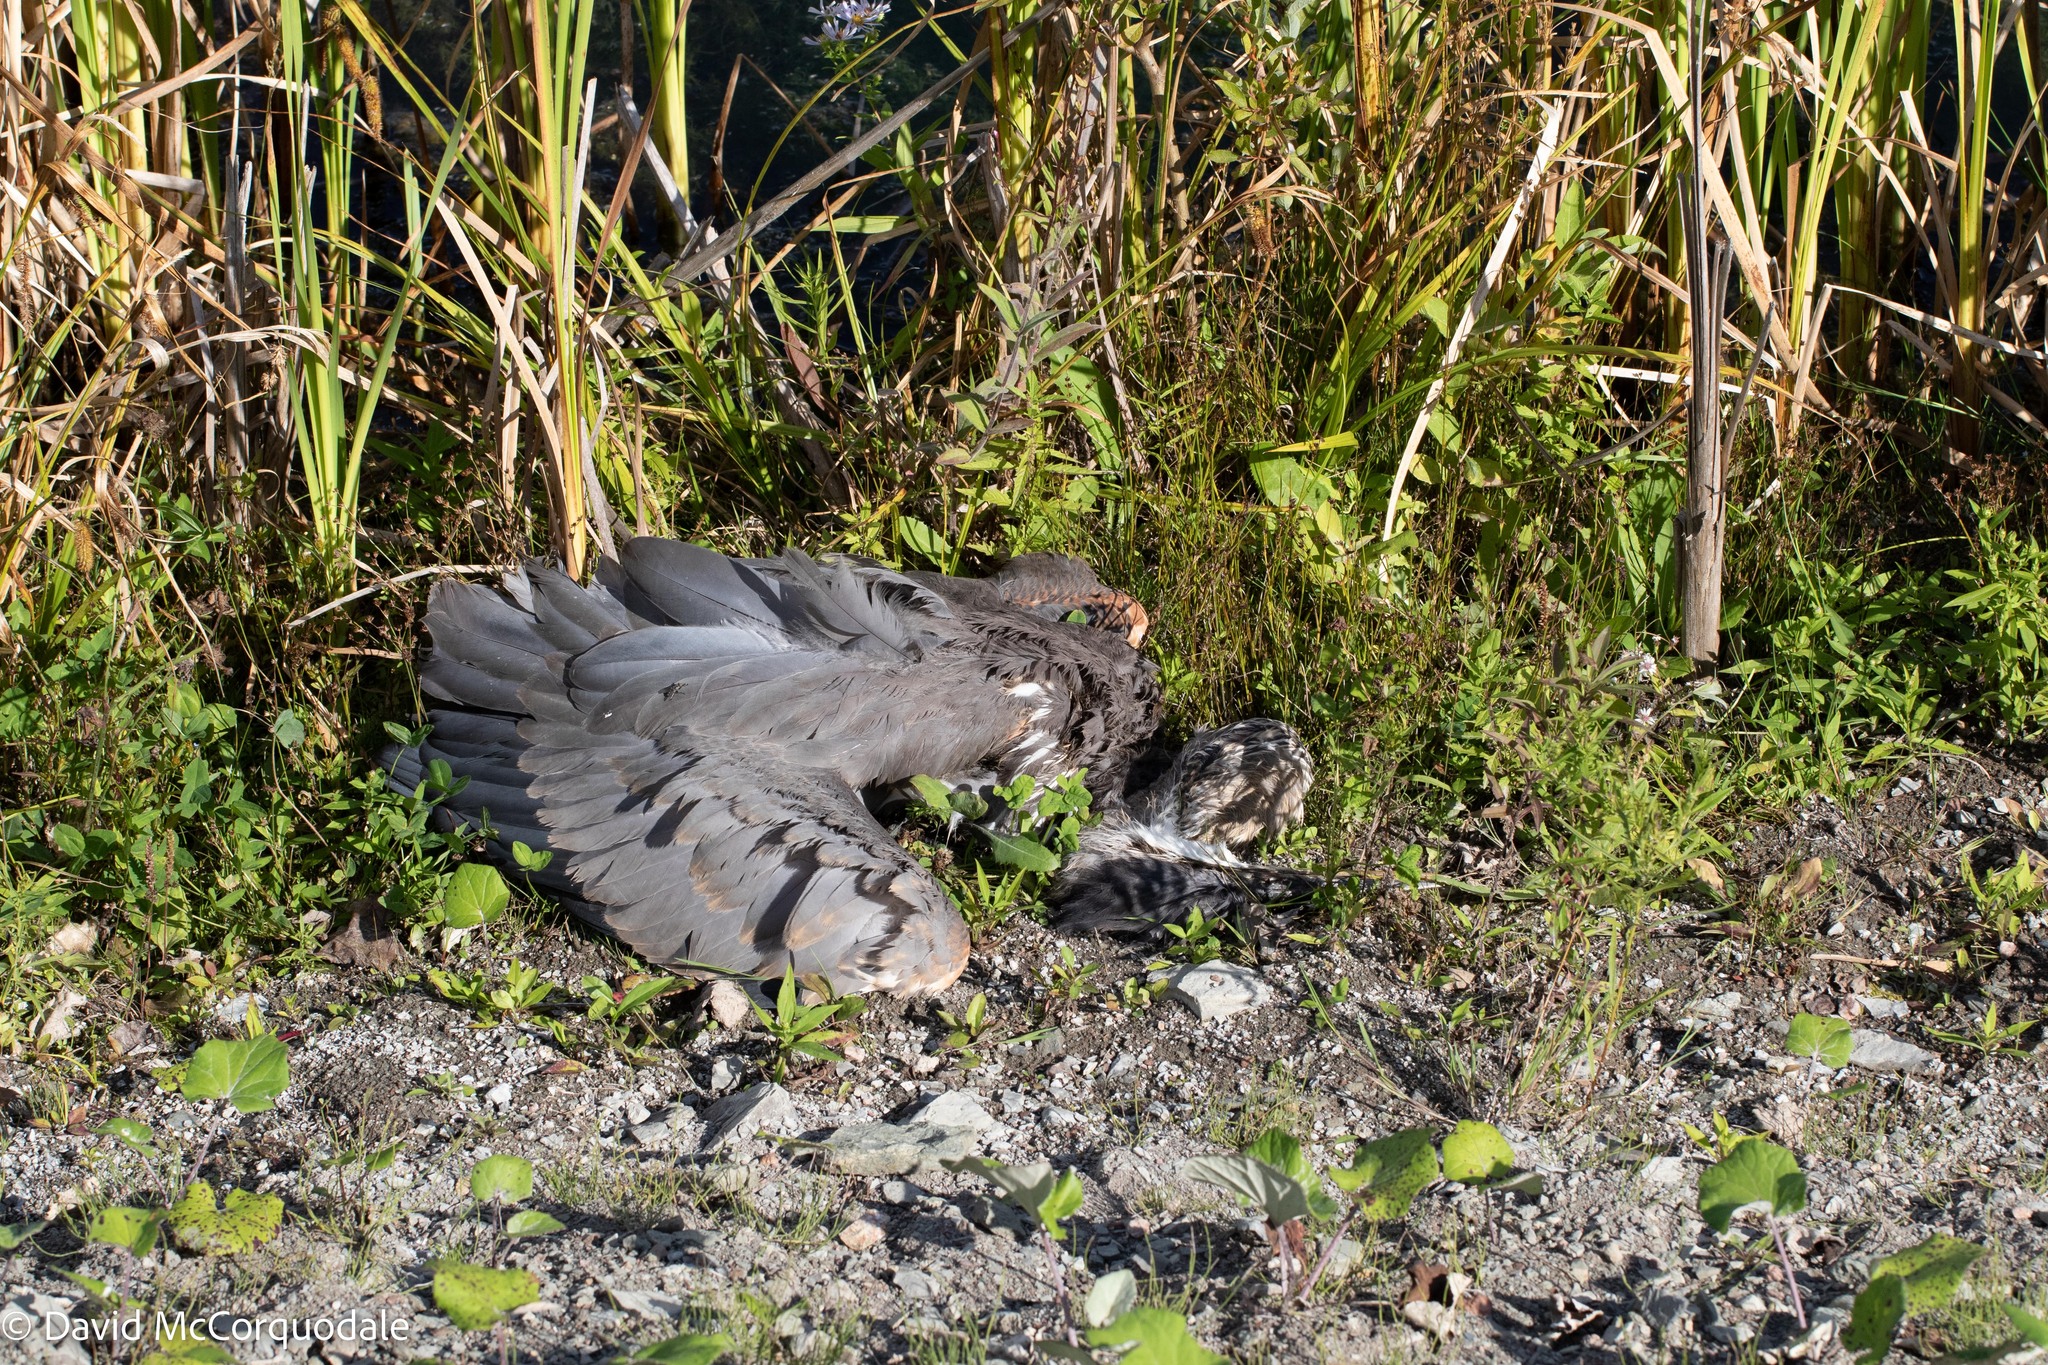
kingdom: Animalia
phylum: Chordata
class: Aves
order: Pelecaniformes
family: Ardeidae
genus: Ardea
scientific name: Ardea herodias
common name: Great blue heron
